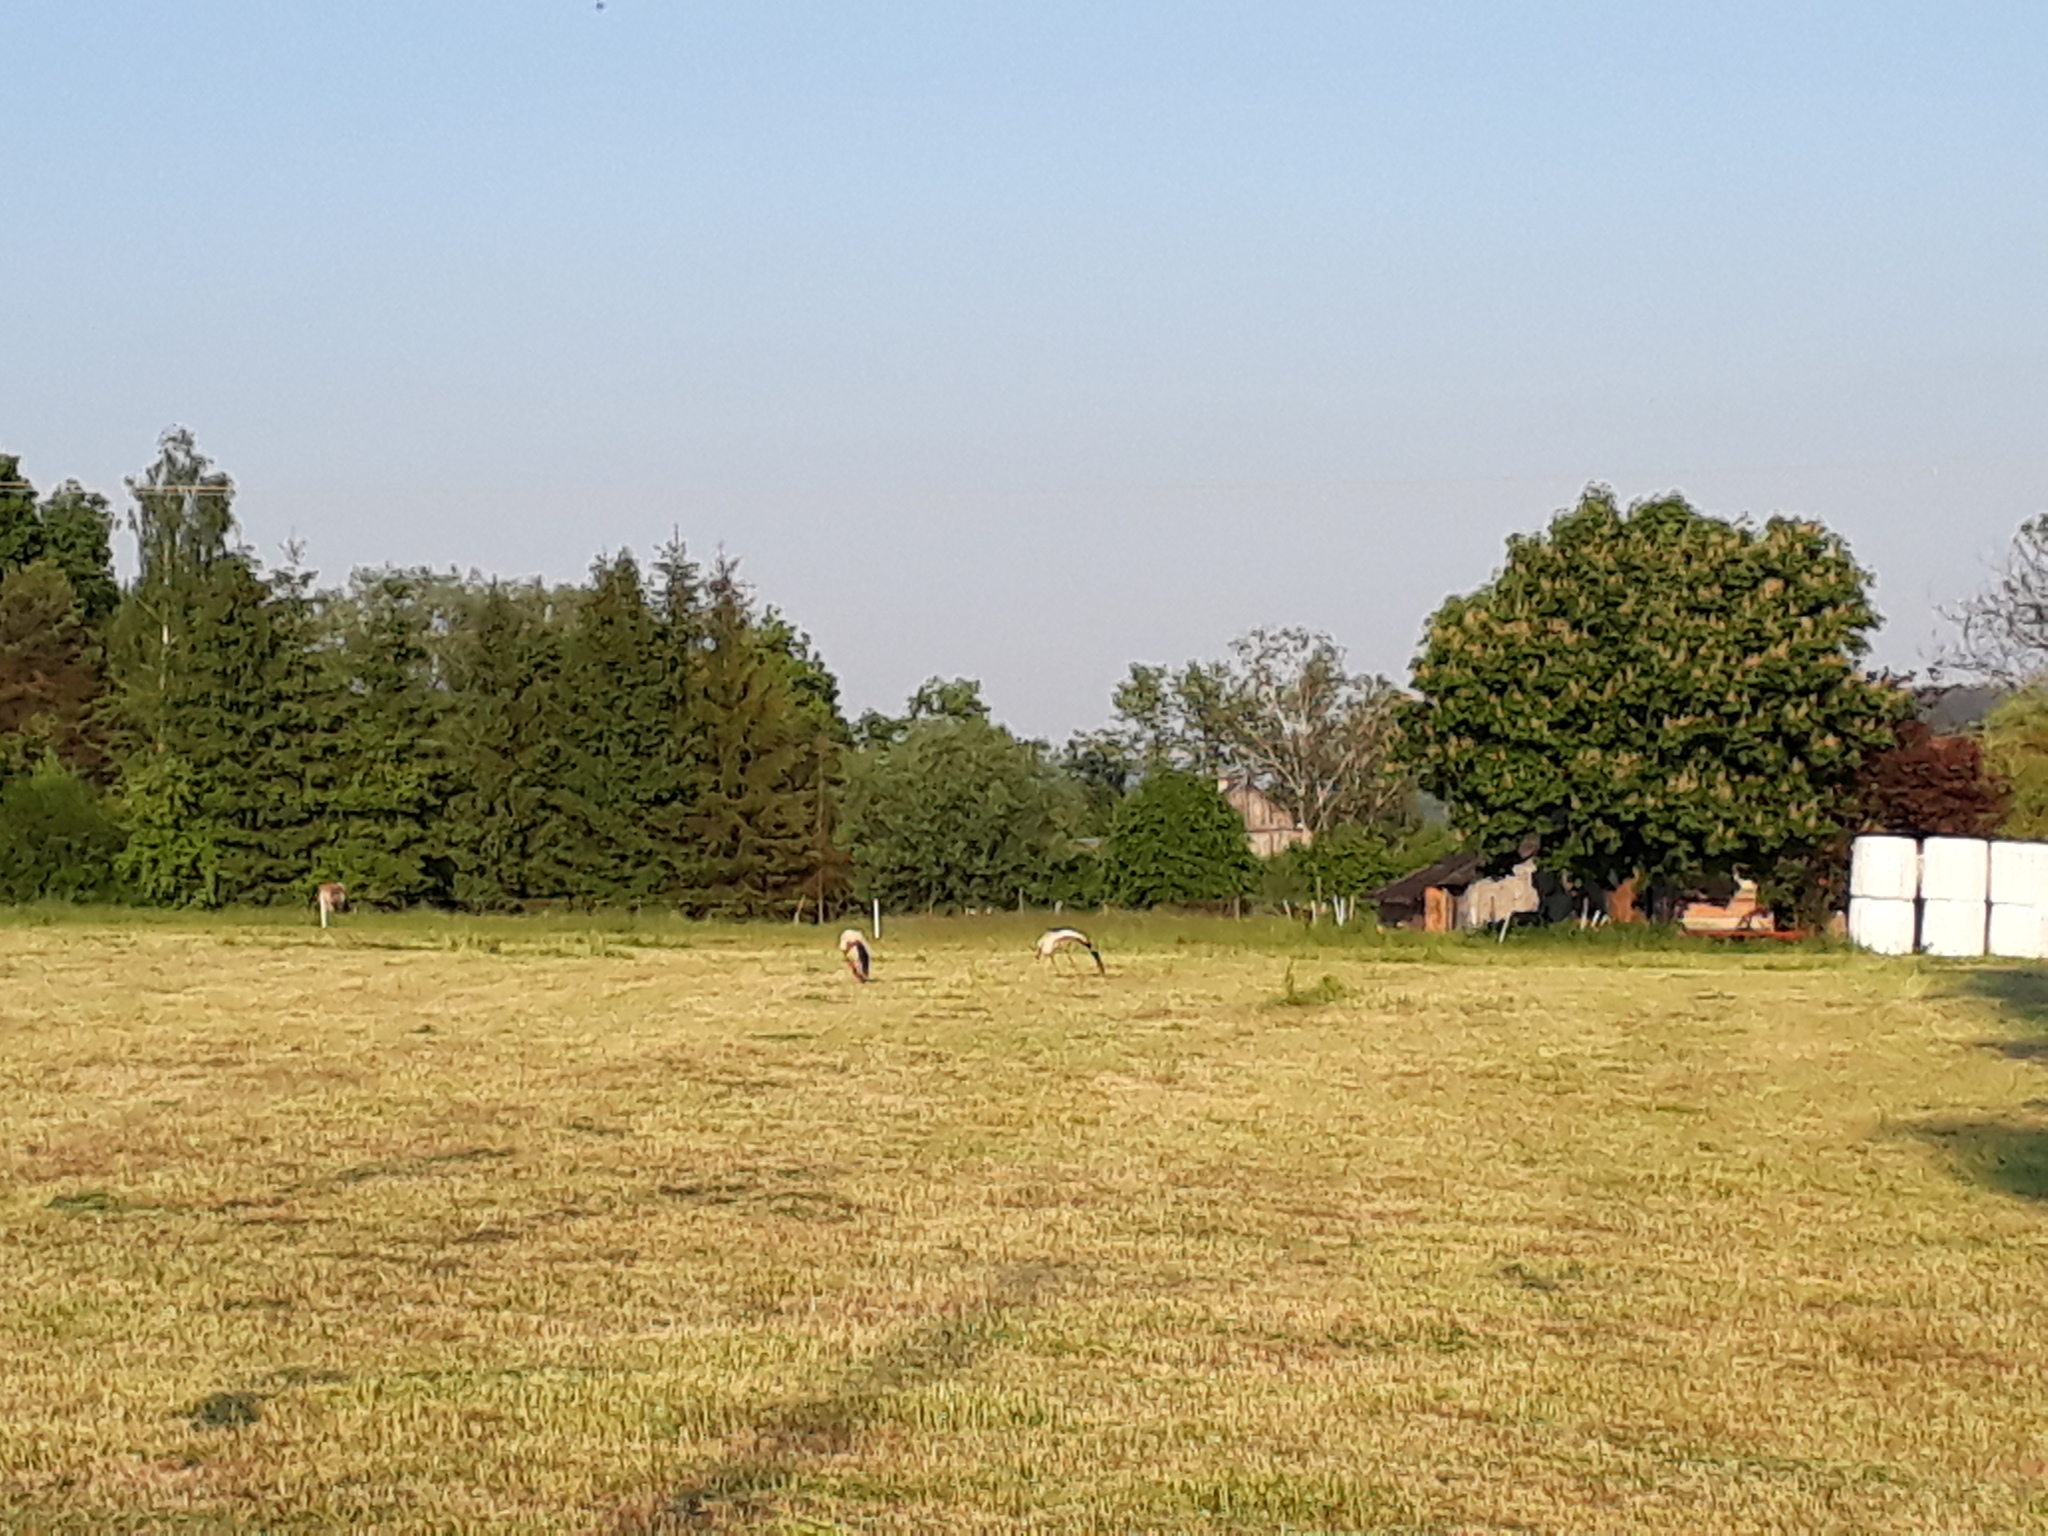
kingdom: Animalia
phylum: Chordata
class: Aves
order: Ciconiiformes
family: Ciconiidae
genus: Ciconia
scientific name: Ciconia ciconia
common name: White stork
